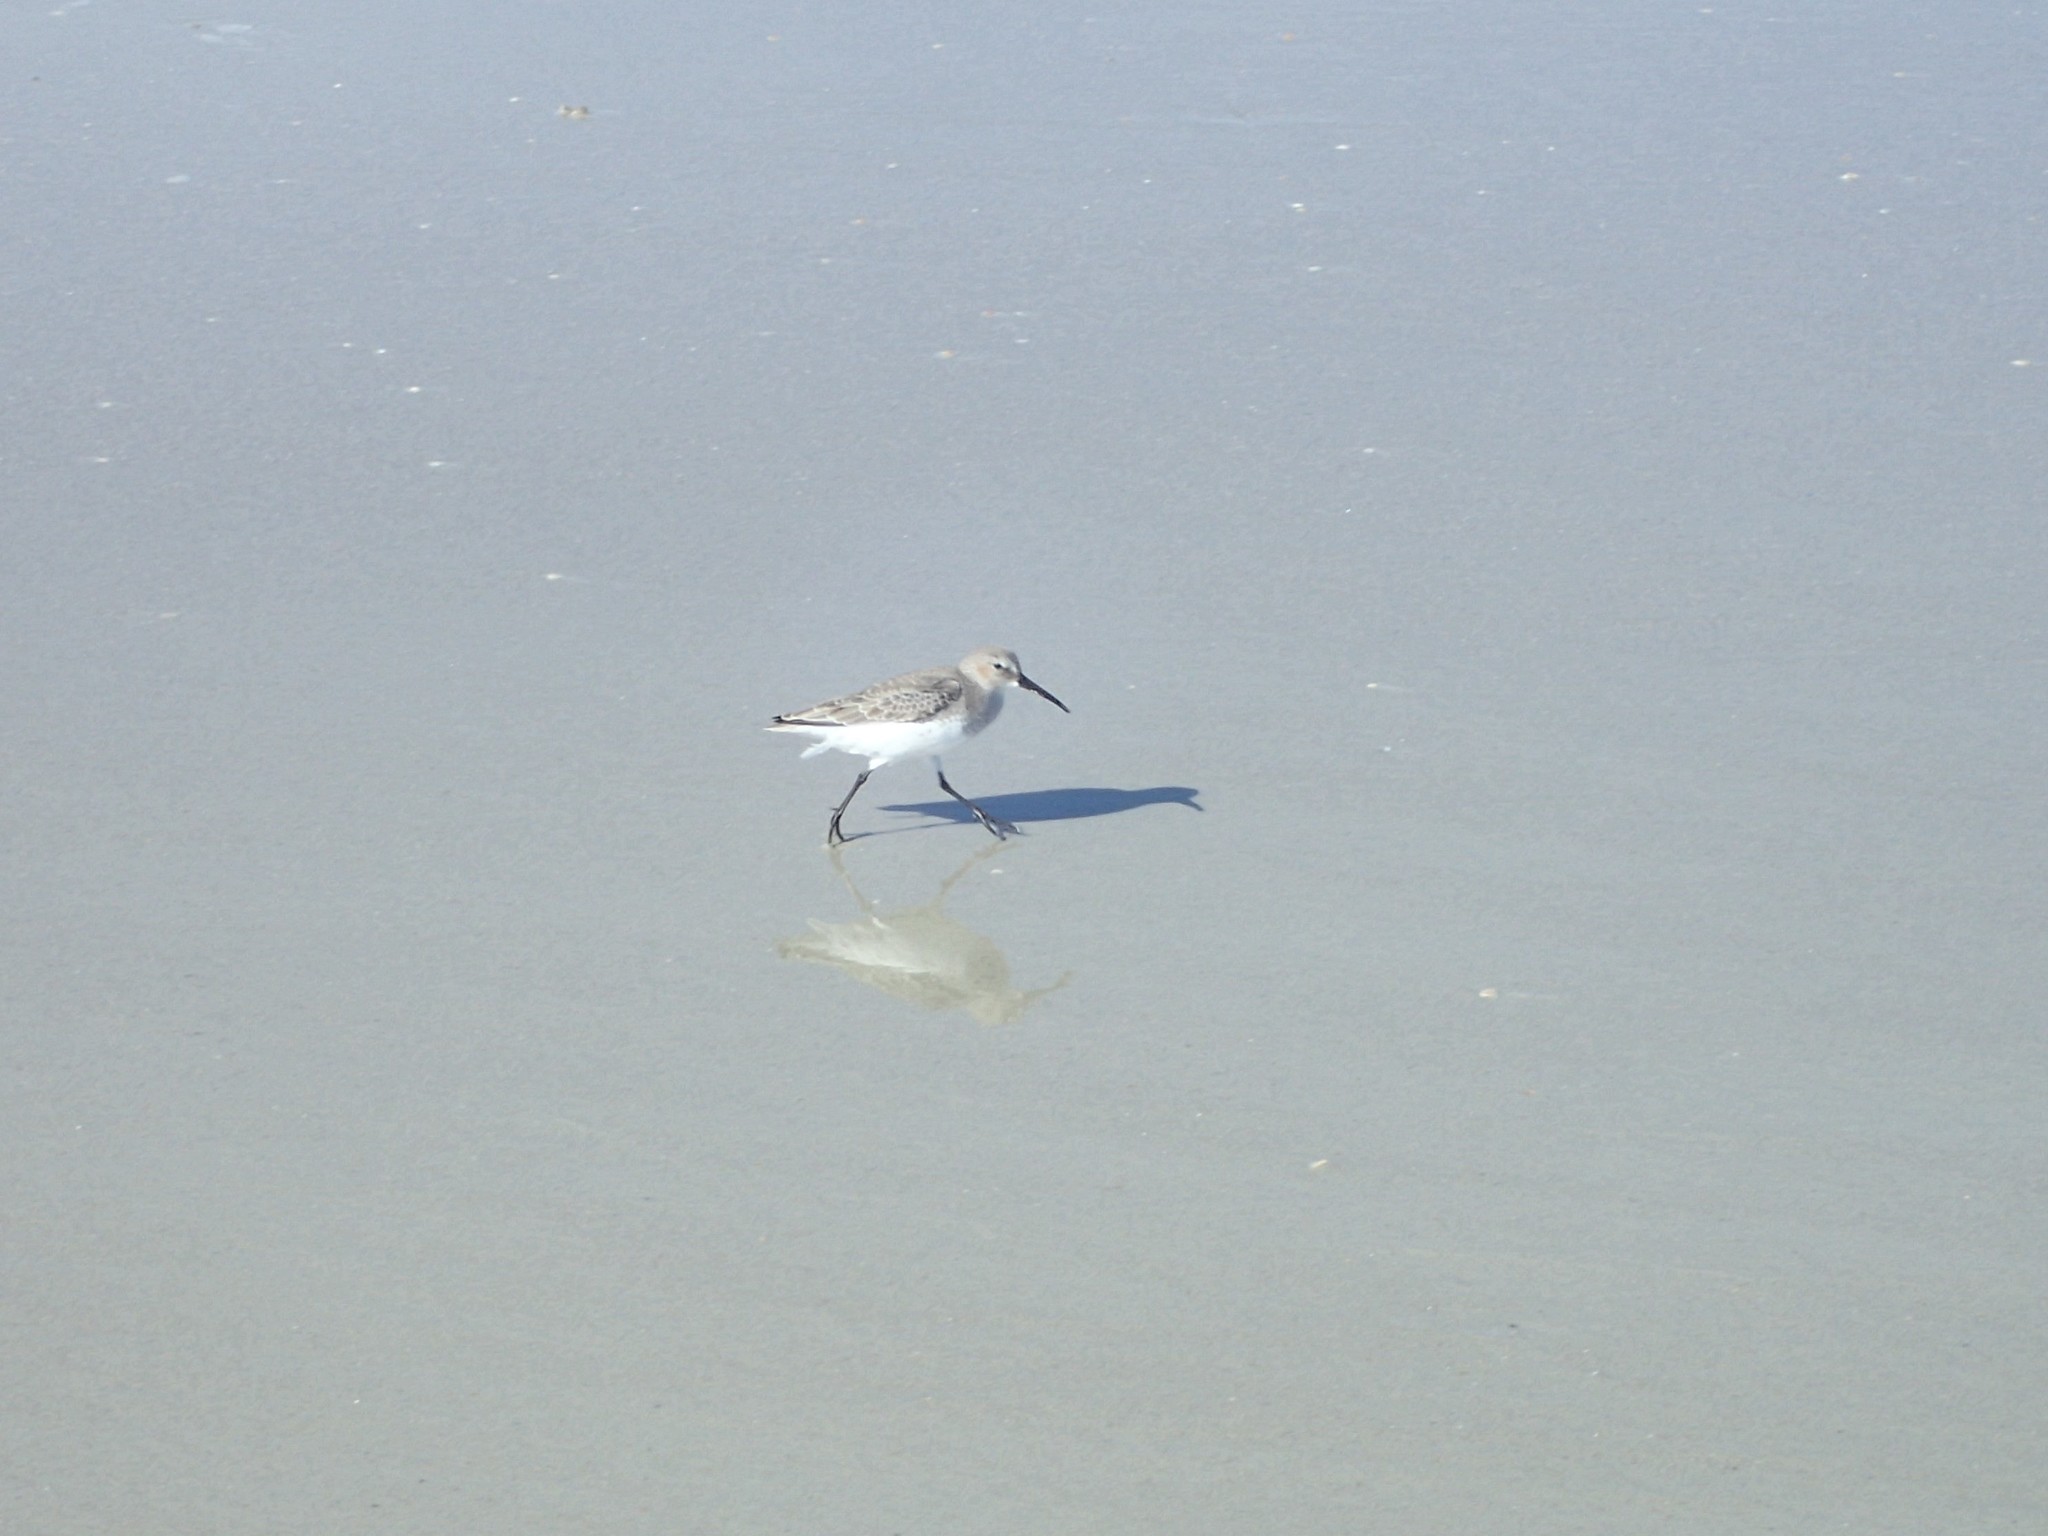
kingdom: Animalia
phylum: Chordata
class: Aves
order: Charadriiformes
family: Scolopacidae
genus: Calidris
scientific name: Calidris alpina
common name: Dunlin
